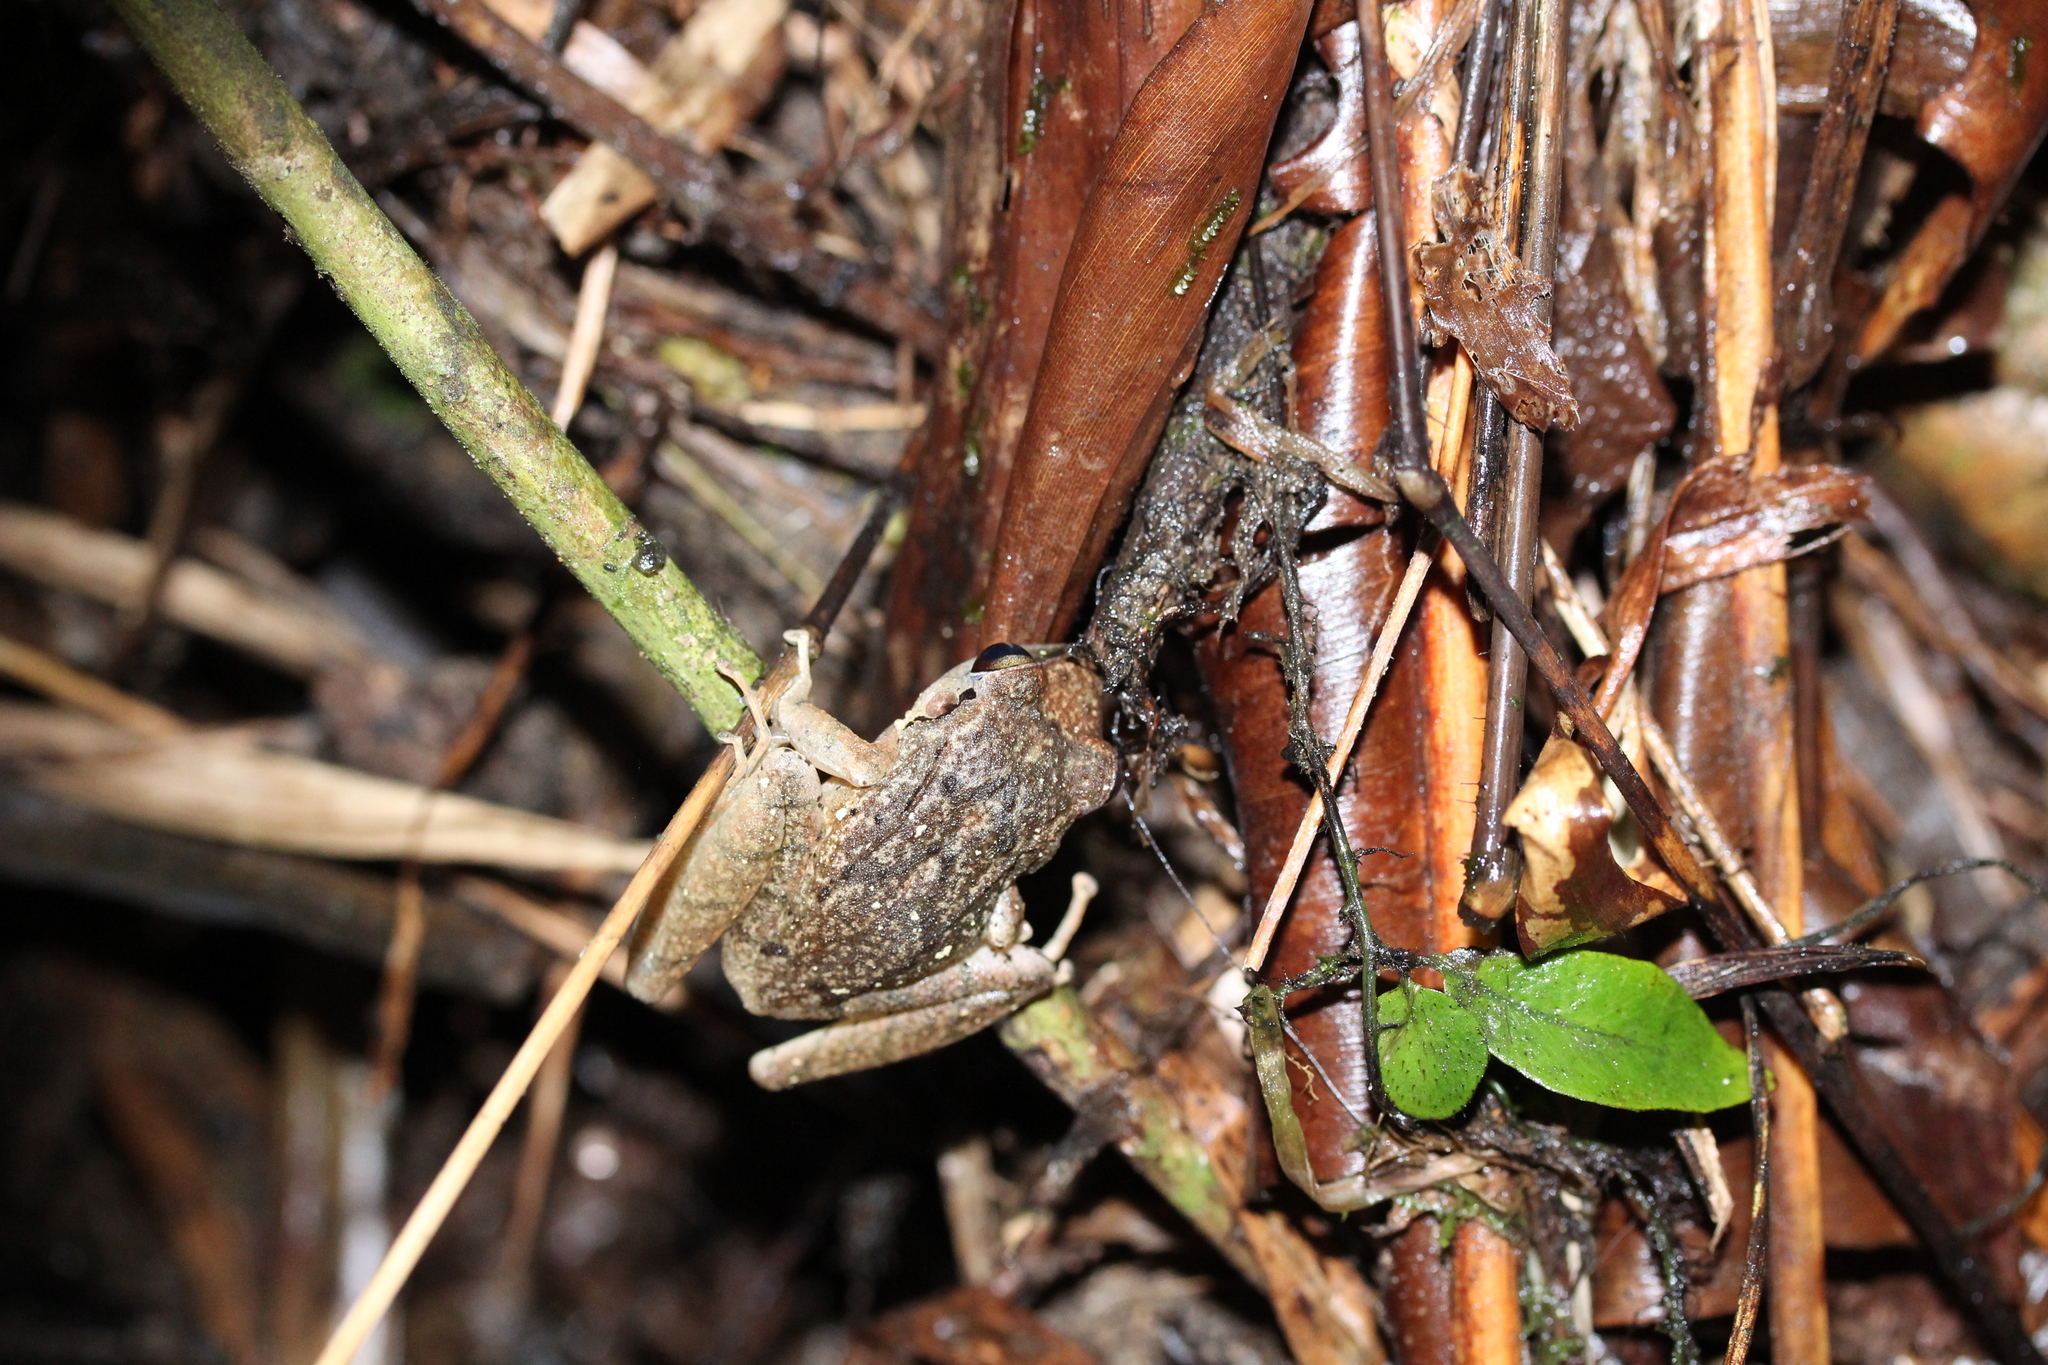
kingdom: Animalia
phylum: Chordata
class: Amphibia
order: Anura
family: Craugastoridae
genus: Pristimantis
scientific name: Pristimantis achatinus
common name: Cachabi robber frog
